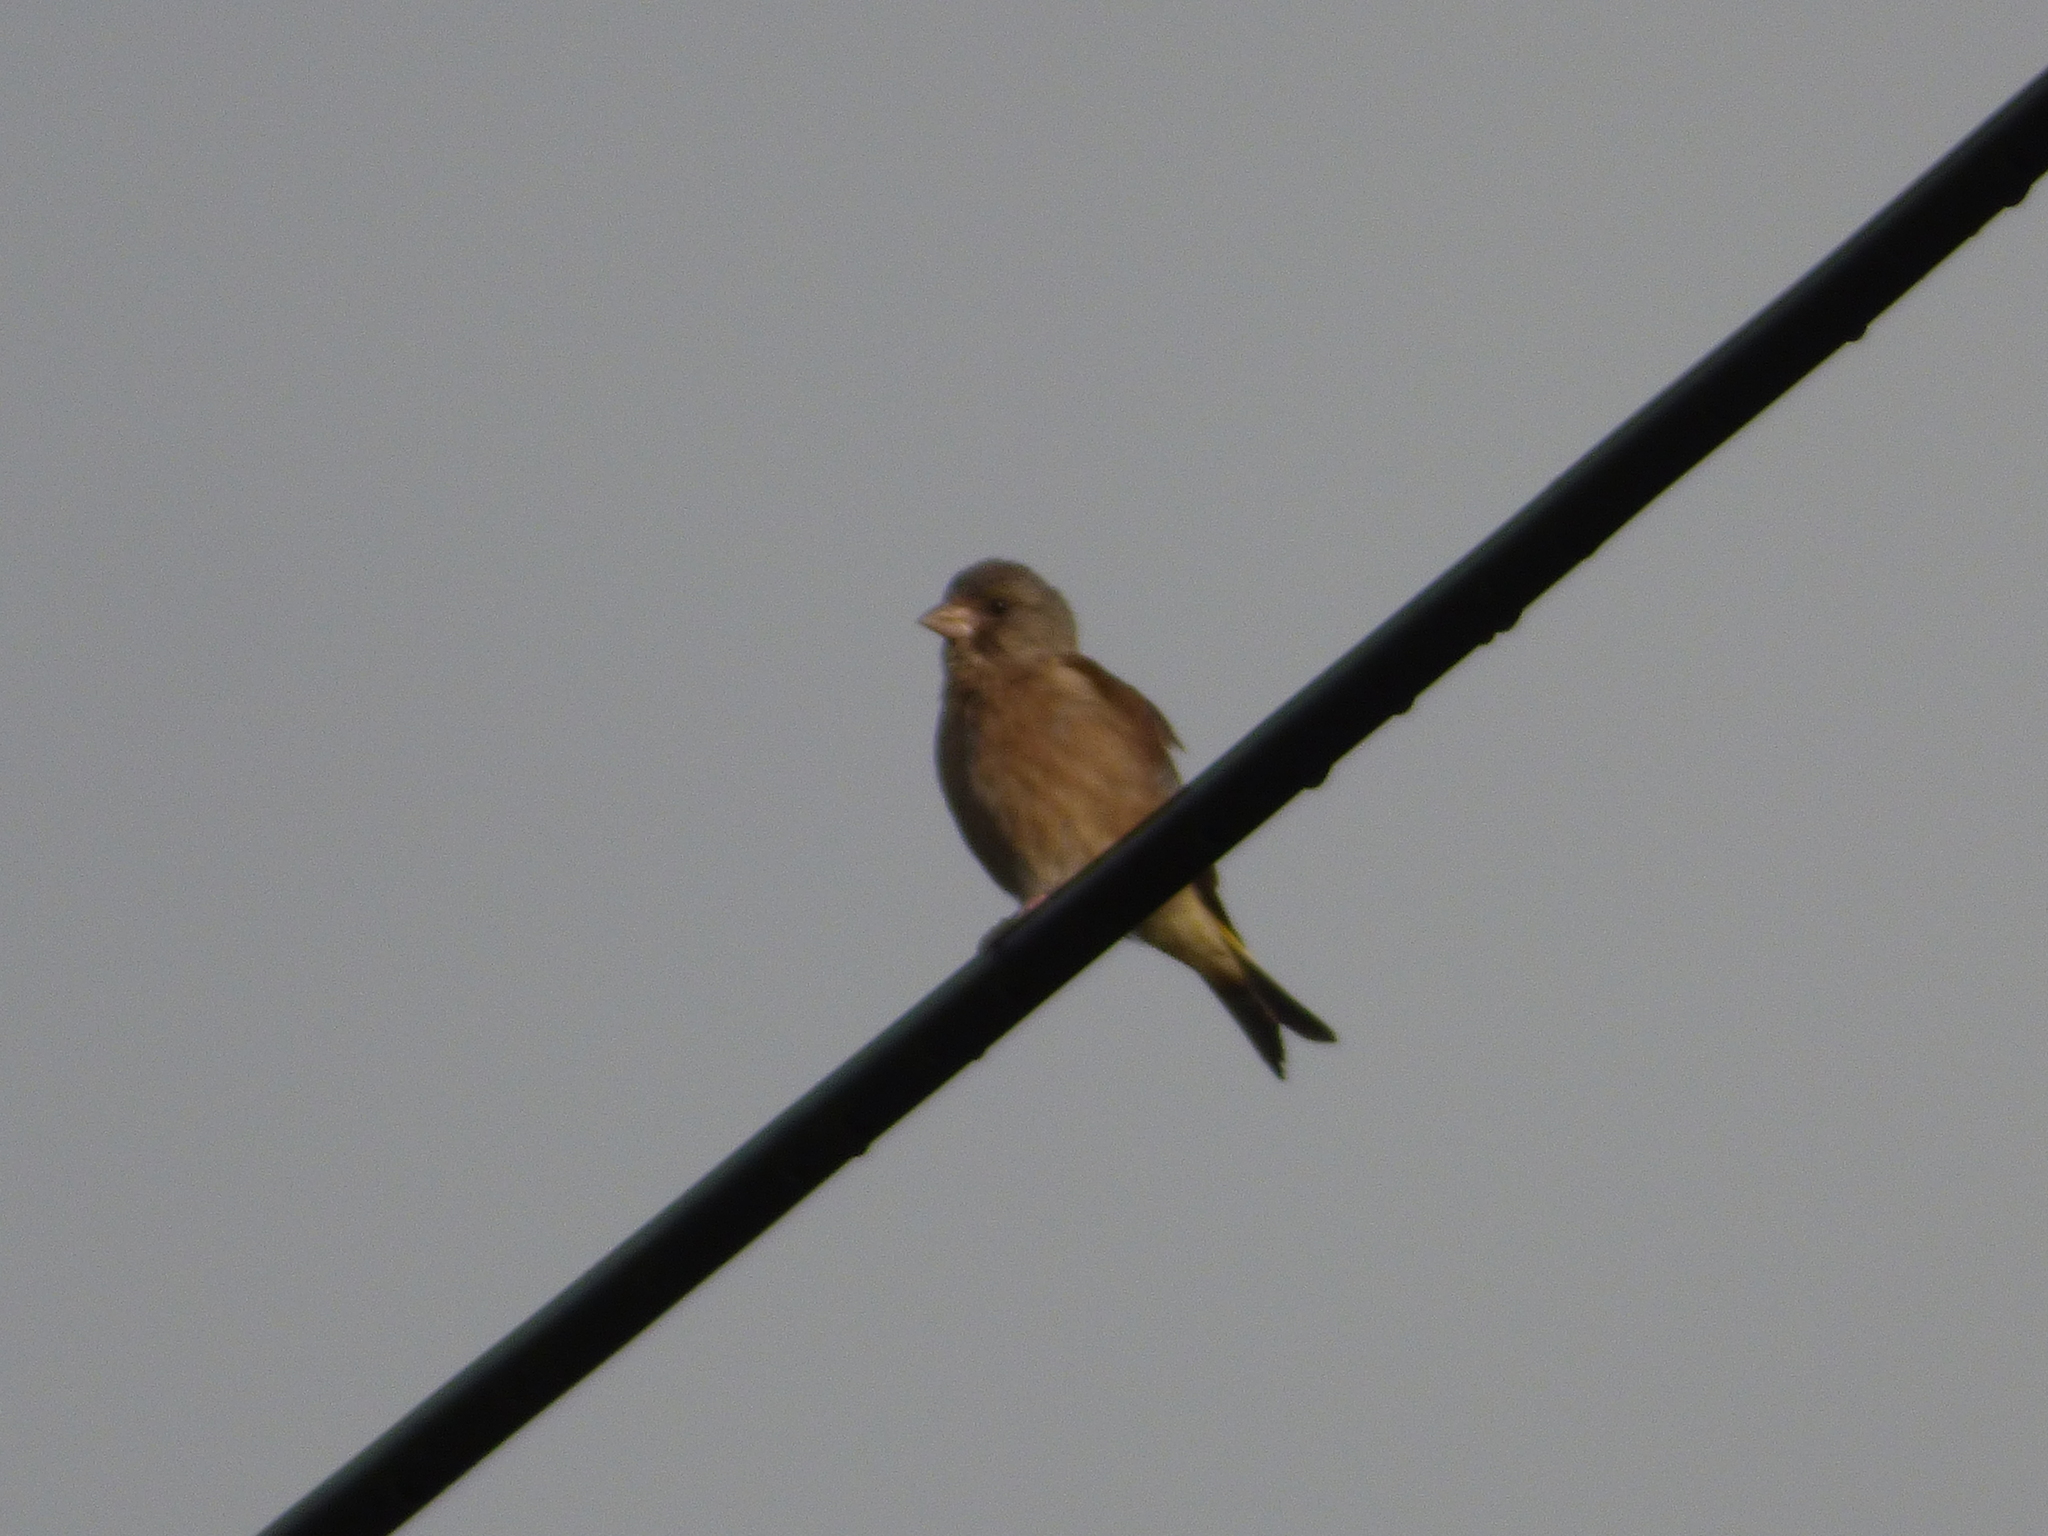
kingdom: Plantae
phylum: Tracheophyta
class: Liliopsida
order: Poales
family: Poaceae
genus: Chloris
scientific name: Chloris sinica
